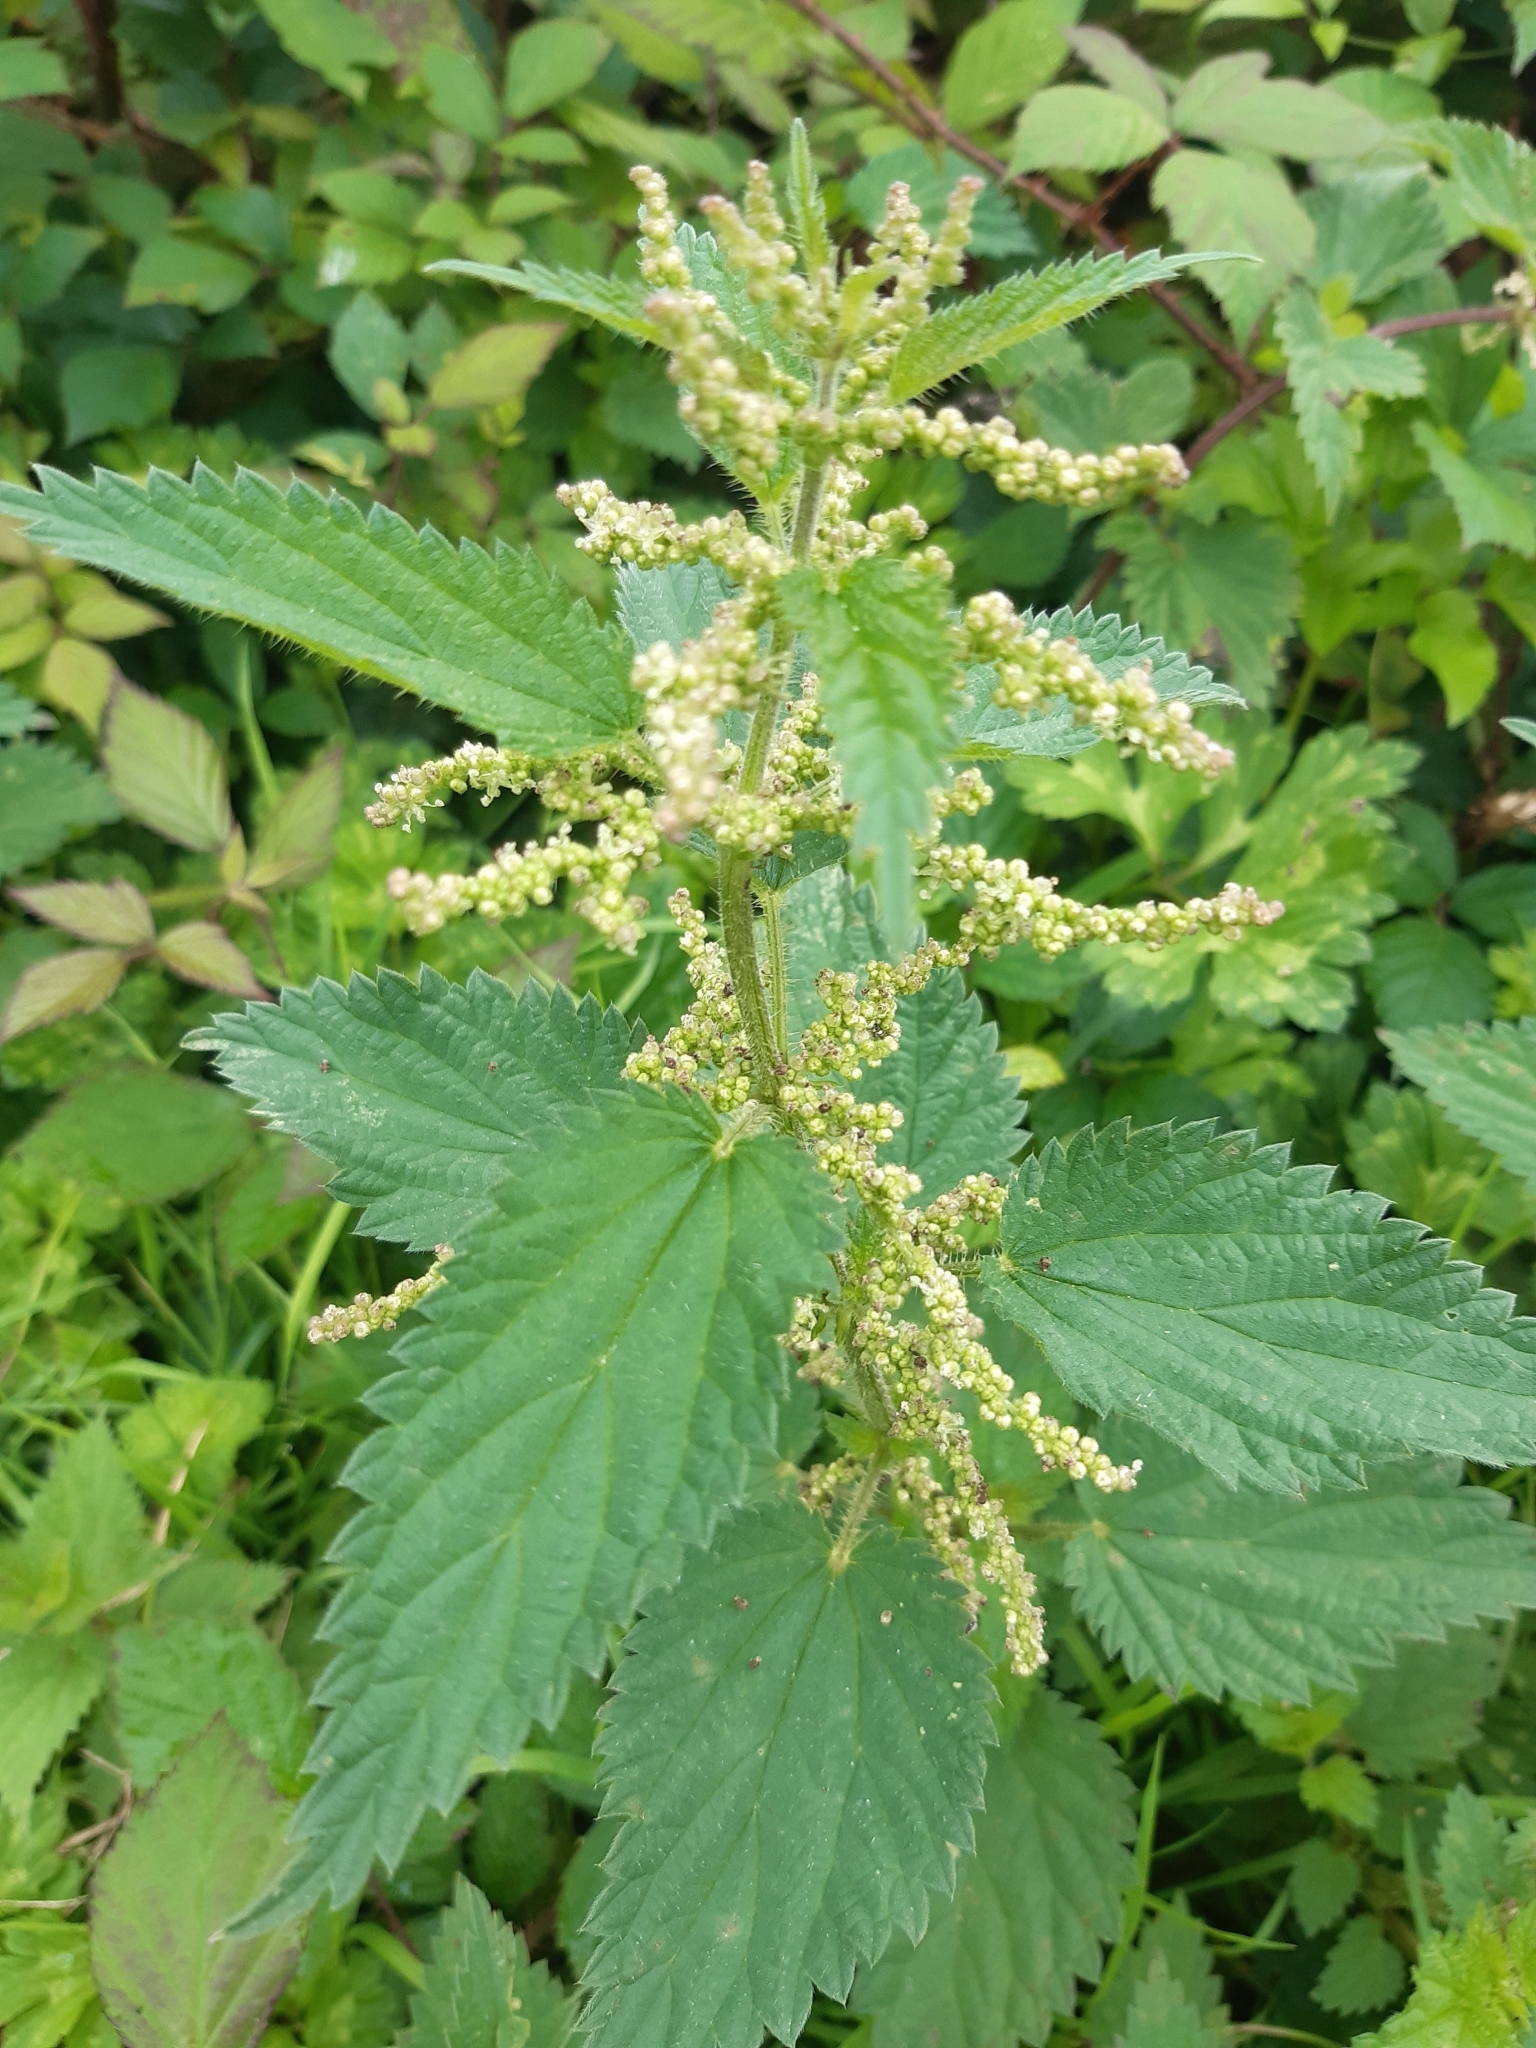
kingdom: Plantae
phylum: Tracheophyta
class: Magnoliopsida
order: Rosales
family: Urticaceae
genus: Urtica
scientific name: Urtica dioica
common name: Common nettle
